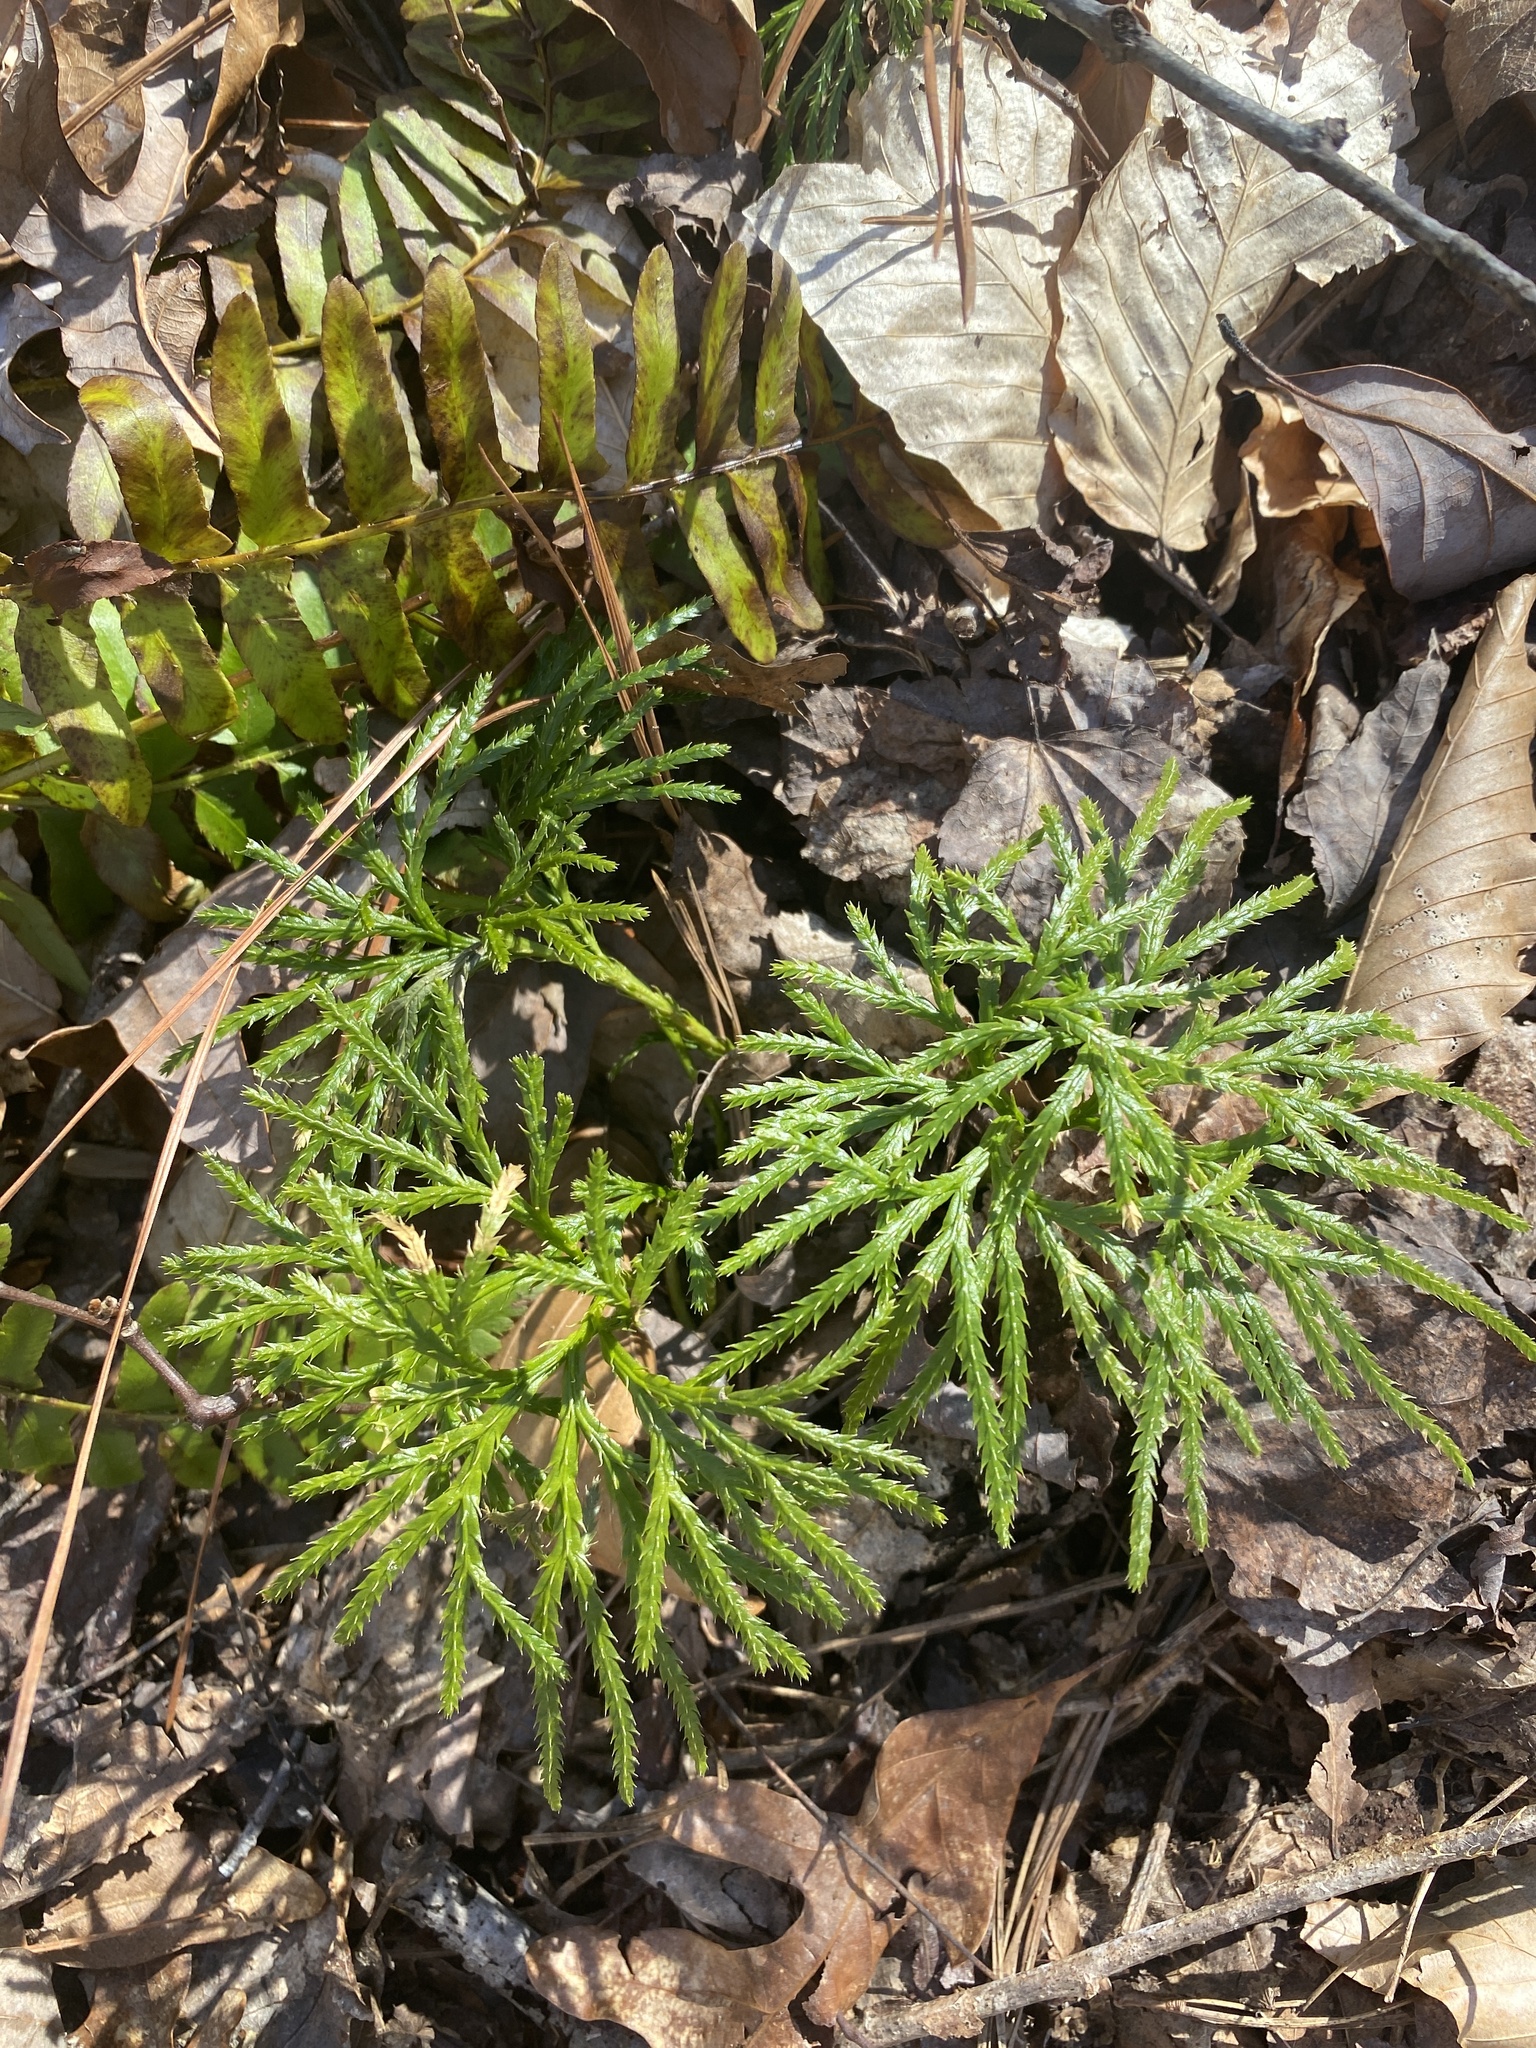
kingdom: Plantae
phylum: Tracheophyta
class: Lycopodiopsida
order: Lycopodiales
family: Lycopodiaceae
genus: Diphasiastrum
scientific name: Diphasiastrum digitatum
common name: Southern running-pine
